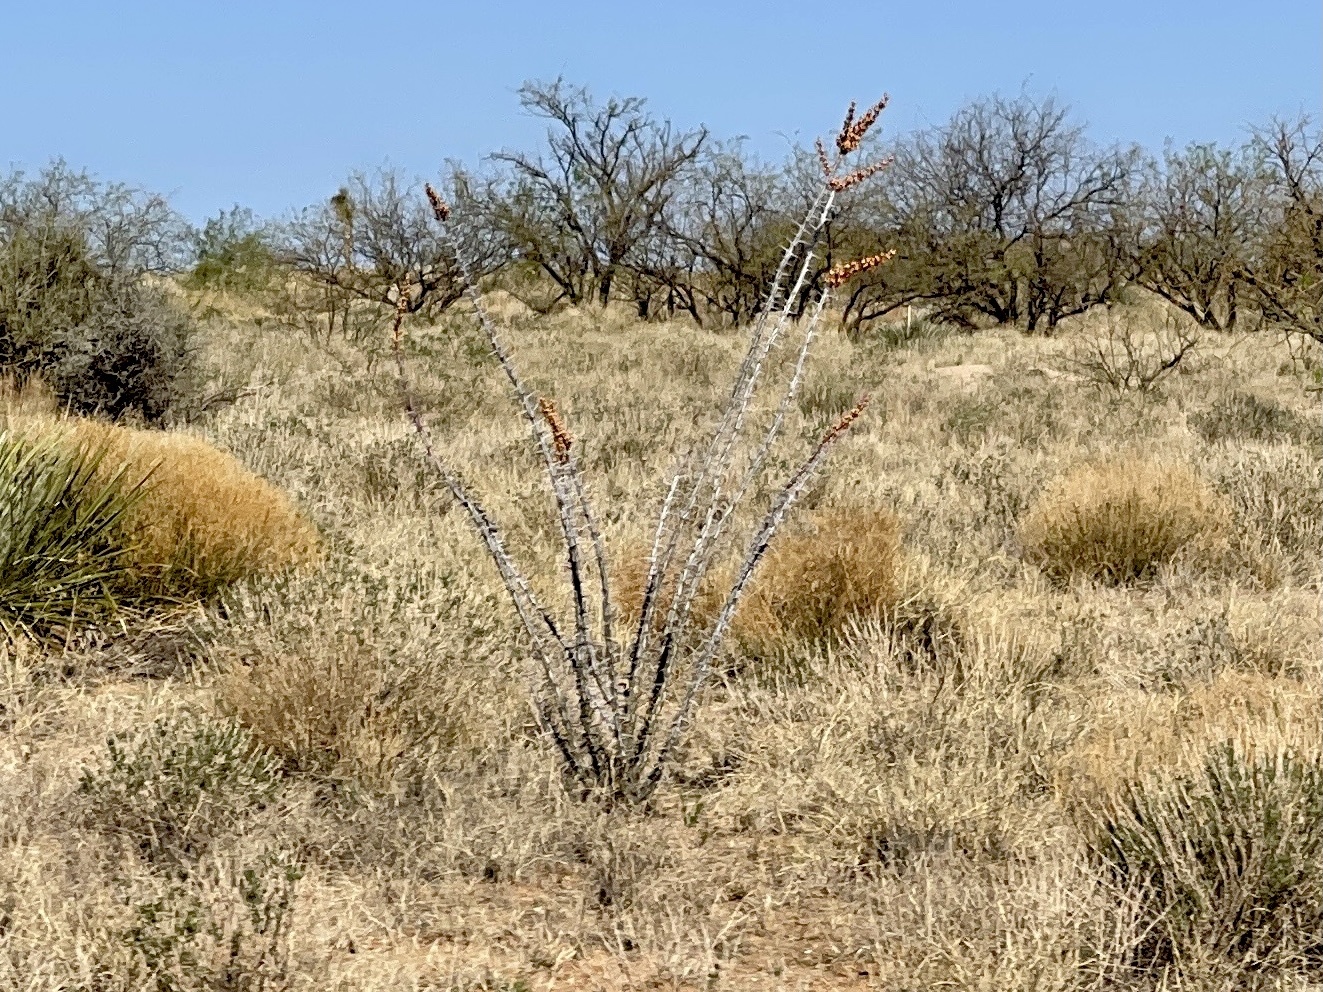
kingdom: Plantae
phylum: Tracheophyta
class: Magnoliopsida
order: Ericales
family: Fouquieriaceae
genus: Fouquieria
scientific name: Fouquieria splendens
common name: Vine-cactus
